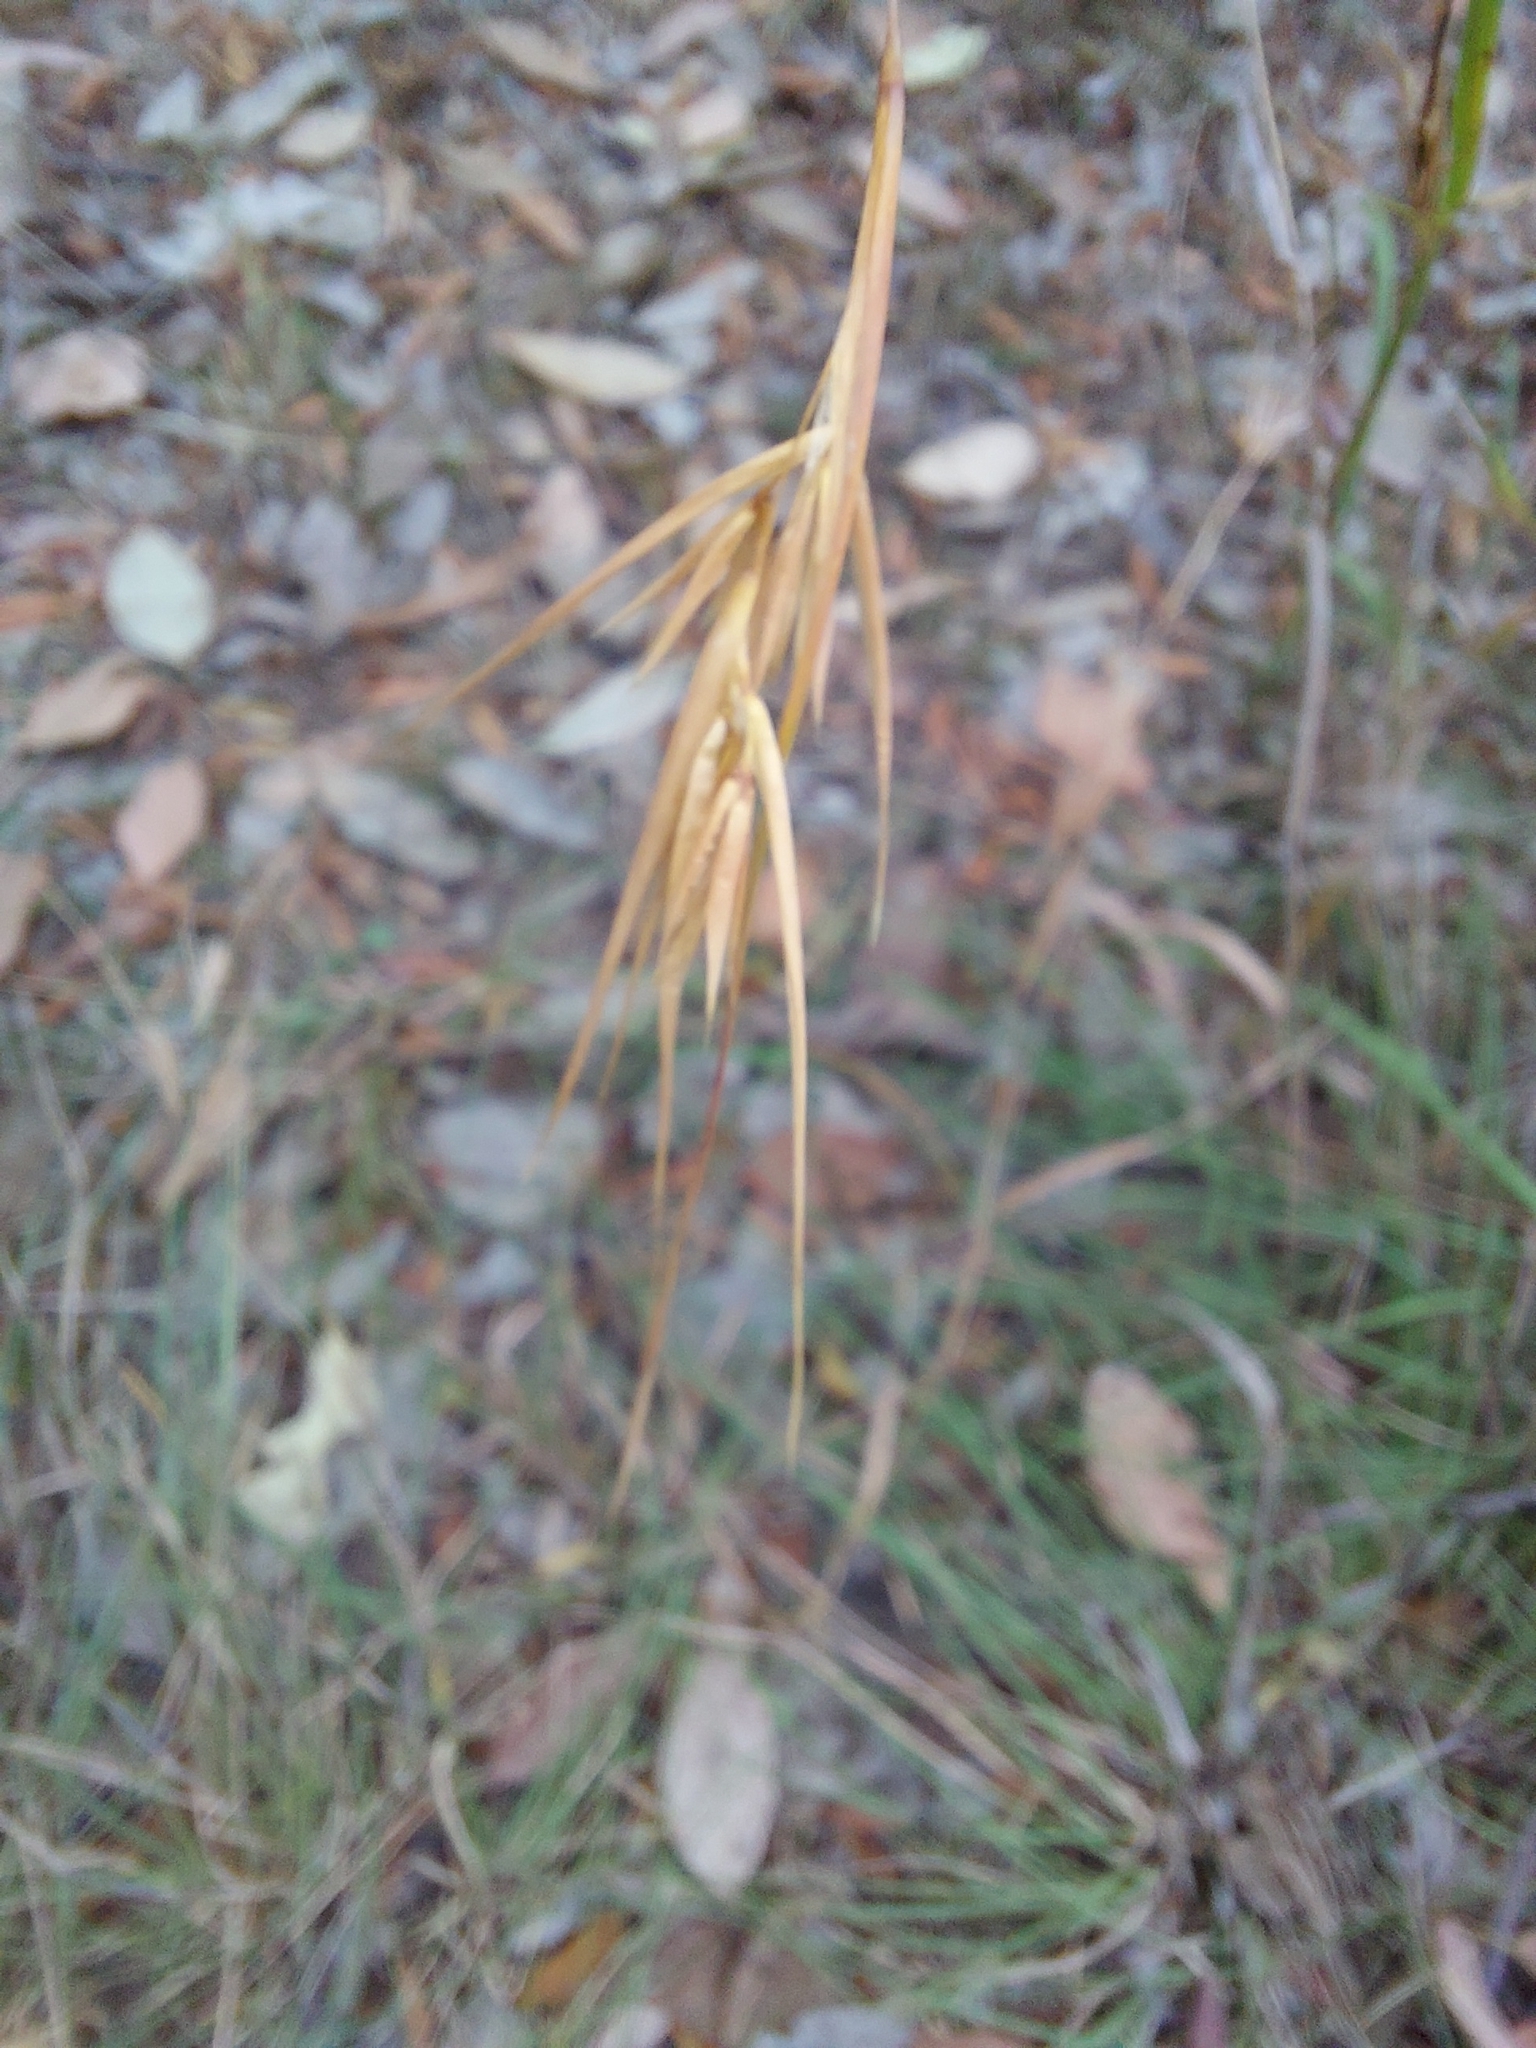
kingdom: Plantae
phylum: Tracheophyta
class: Liliopsida
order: Poales
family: Poaceae
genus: Themeda
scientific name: Themeda triandra
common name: Kangaroo grass
